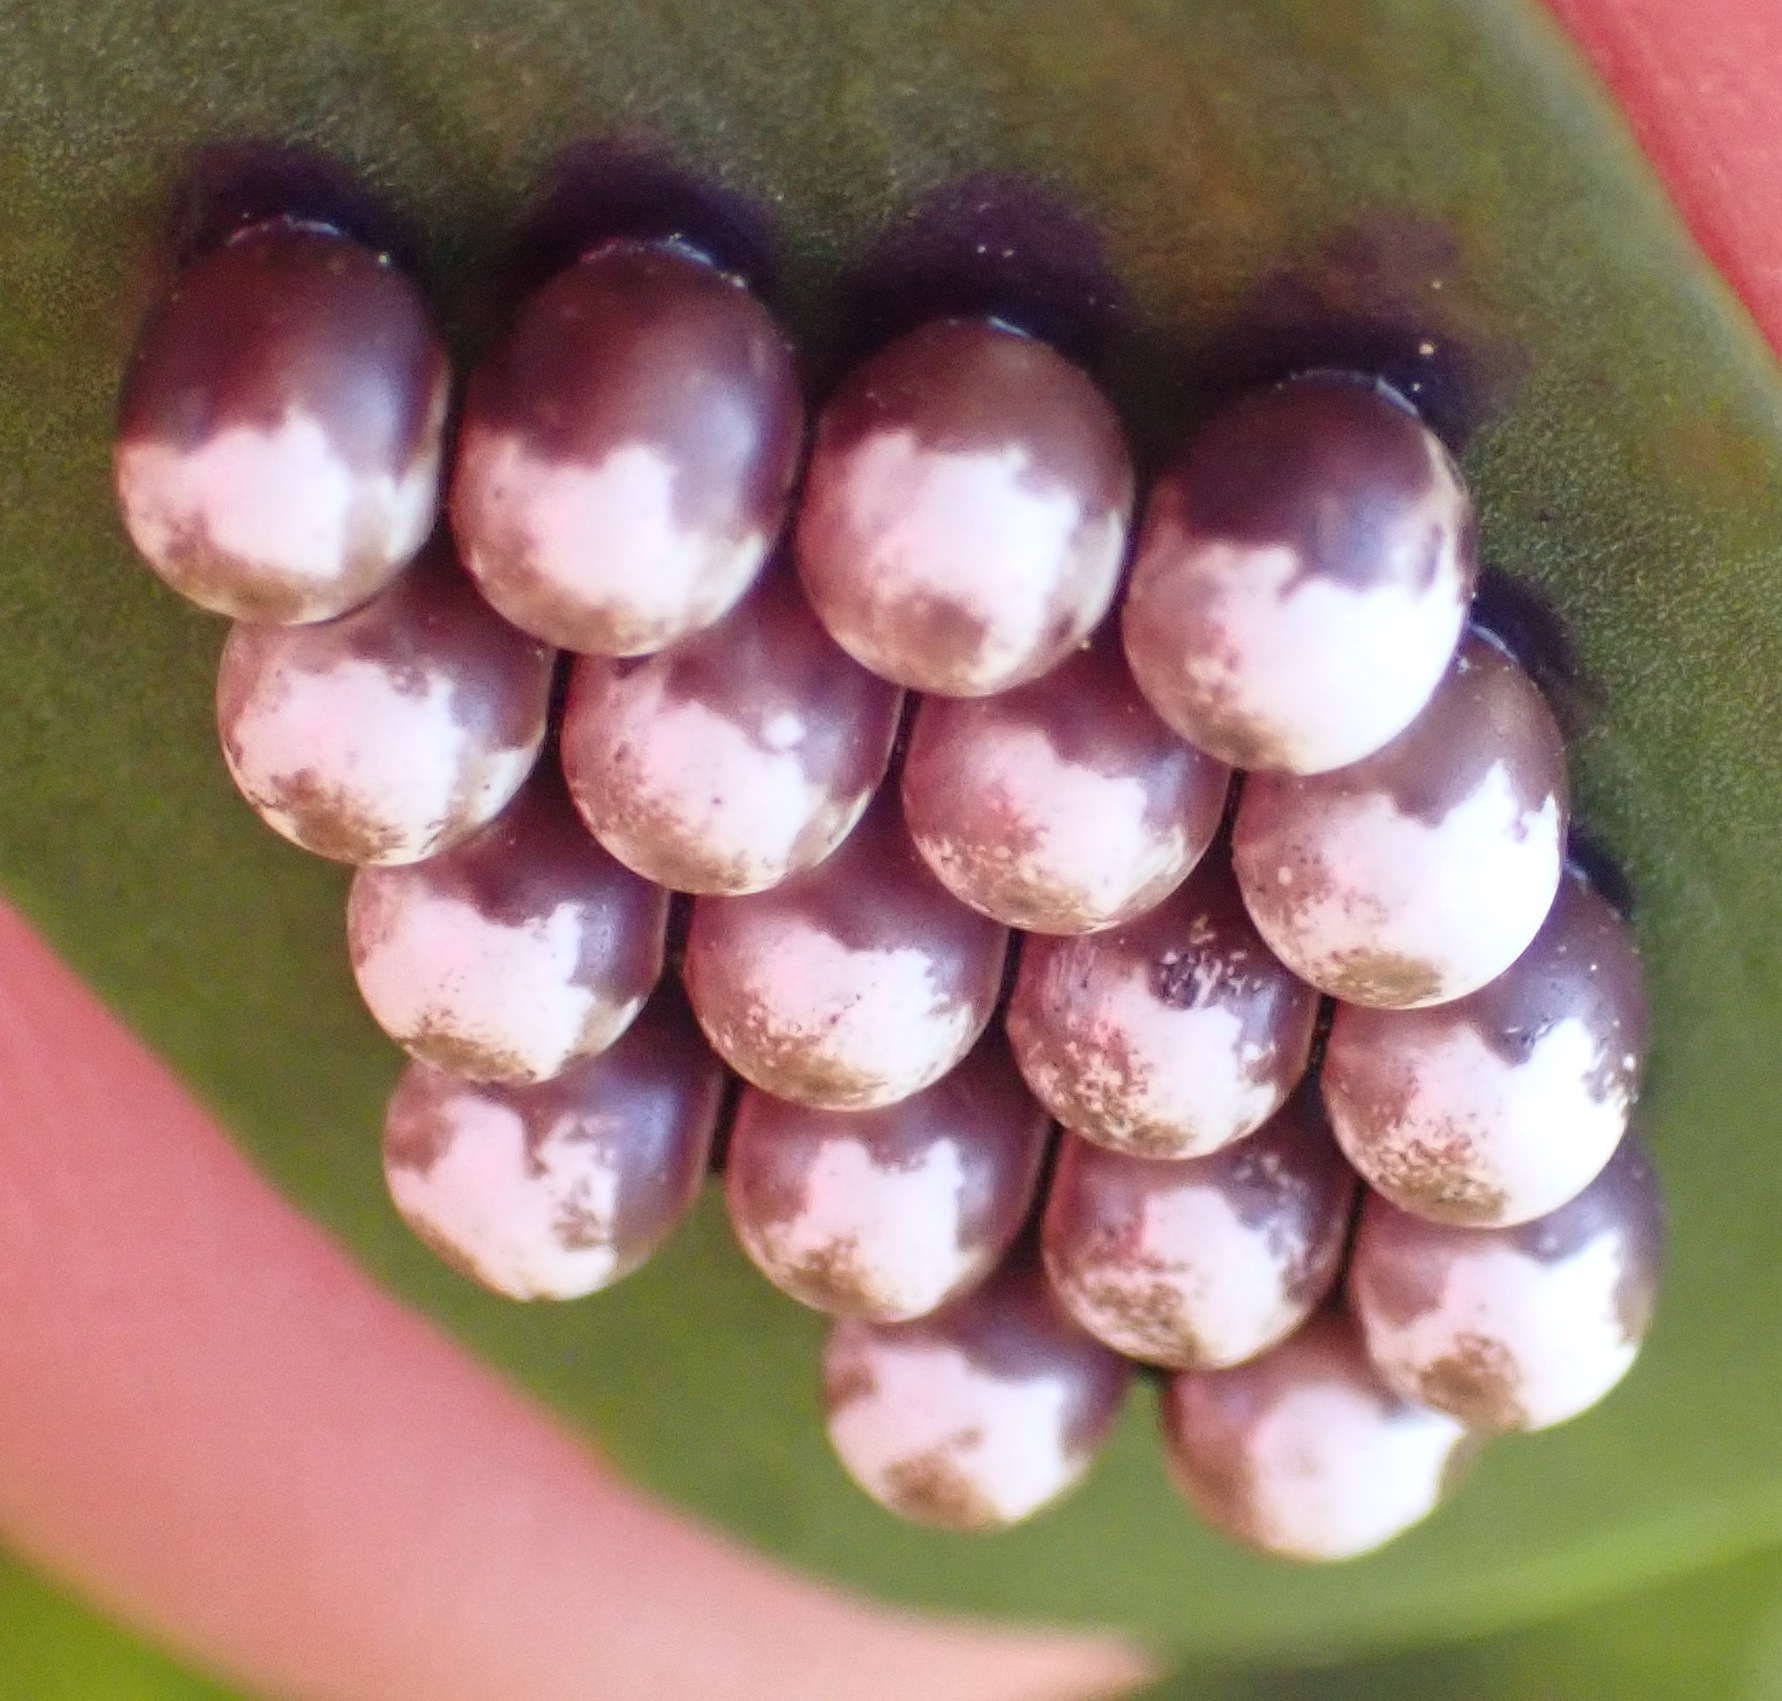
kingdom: Animalia
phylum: Arthropoda
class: Insecta
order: Lepidoptera
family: Saturniidae
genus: Nudaurelia
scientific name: Nudaurelia cytherea
